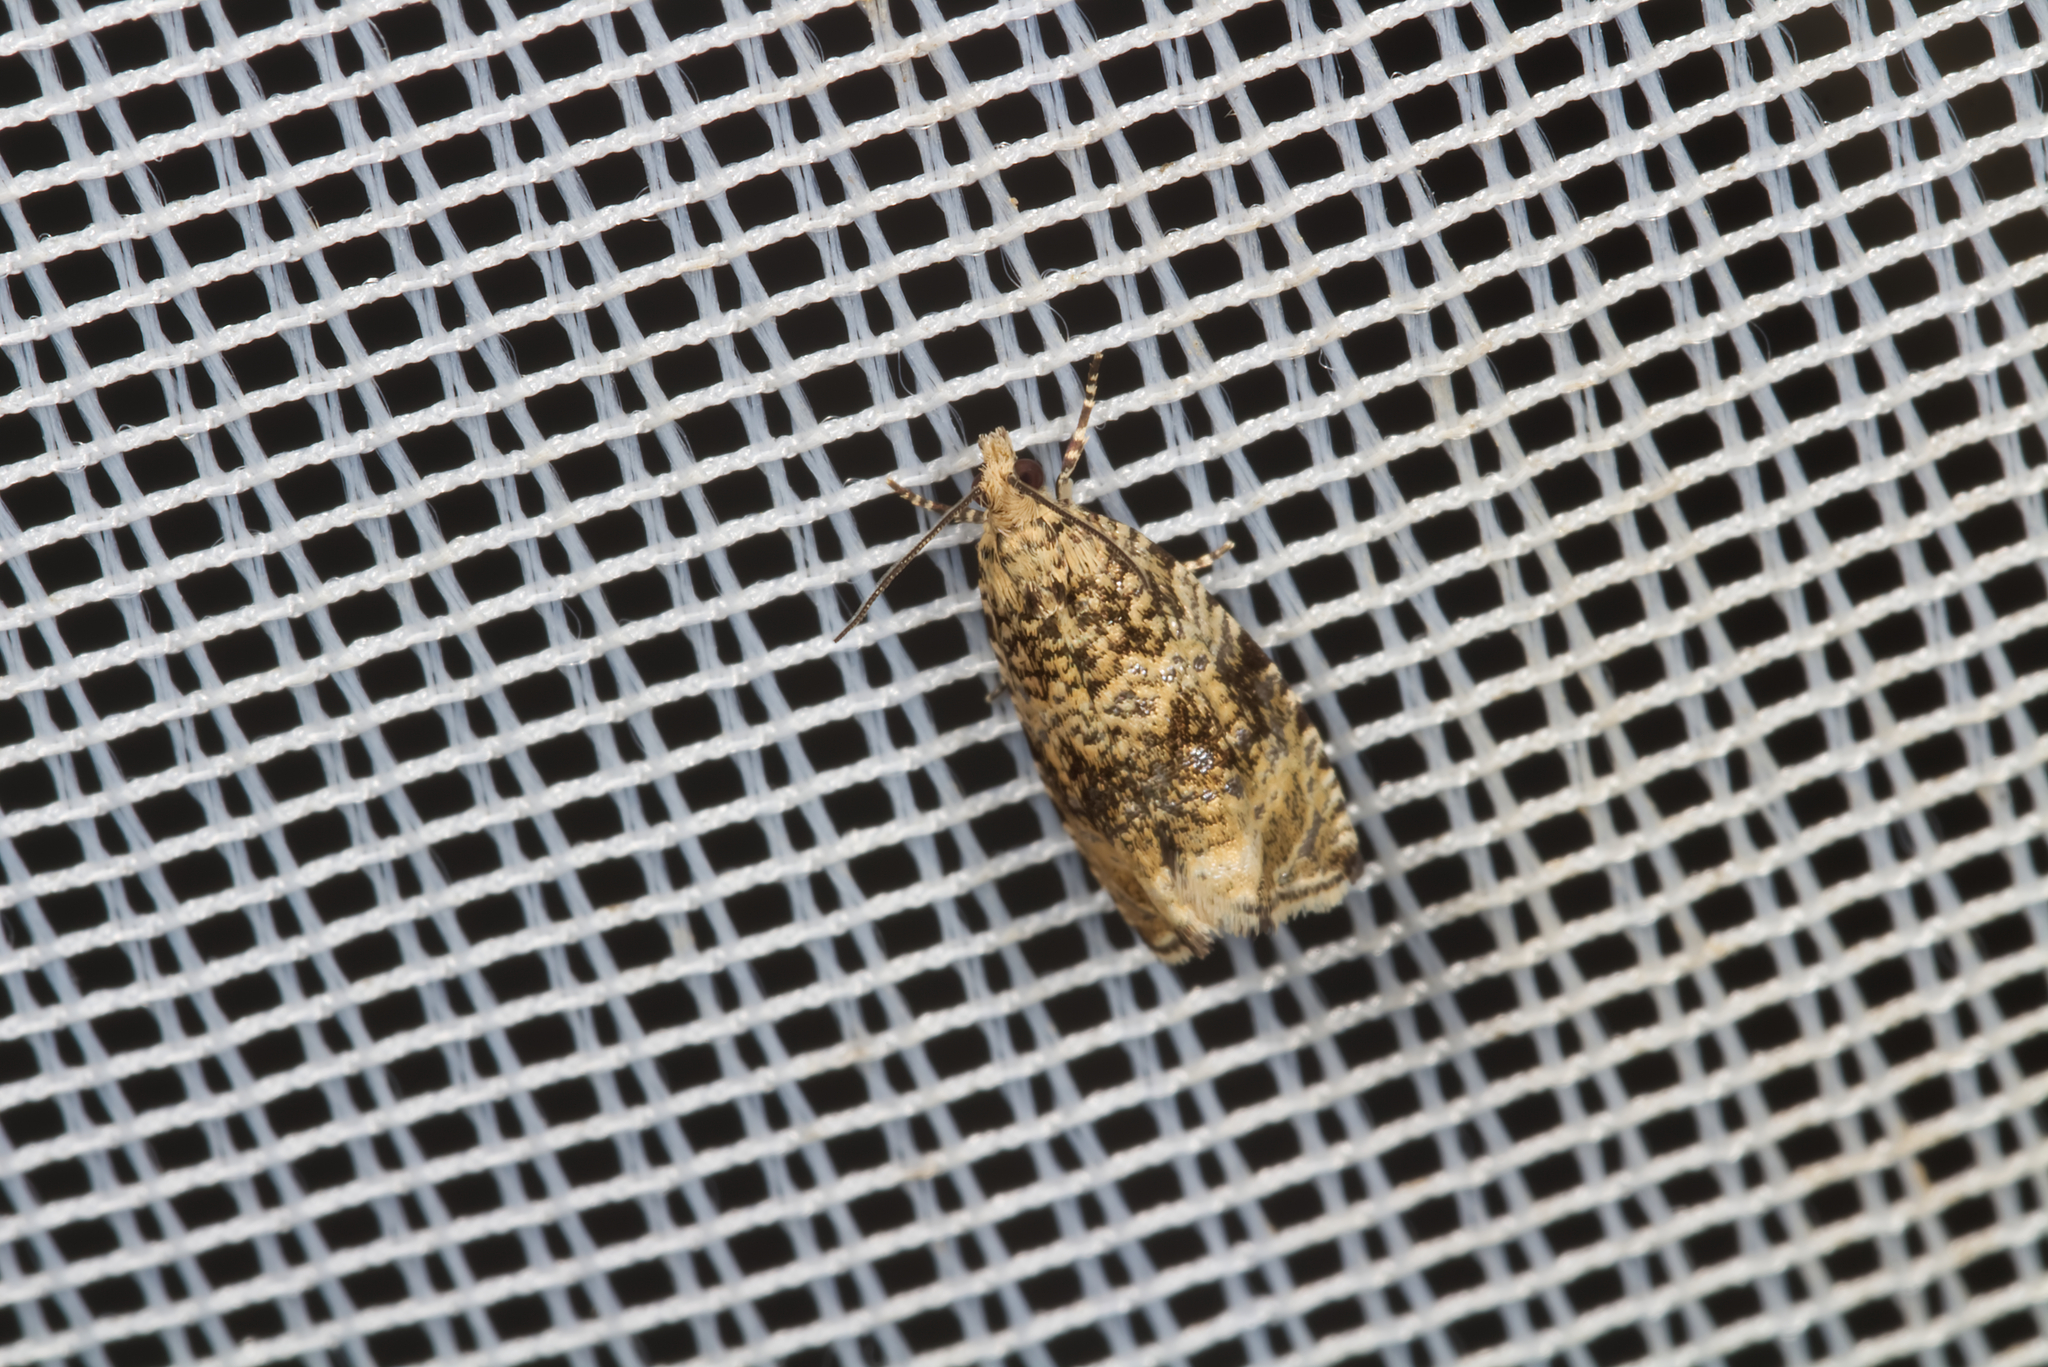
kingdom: Animalia
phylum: Arthropoda
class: Insecta
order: Lepidoptera
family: Tortricidae
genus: Syricoris
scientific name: Syricoris lacunana
